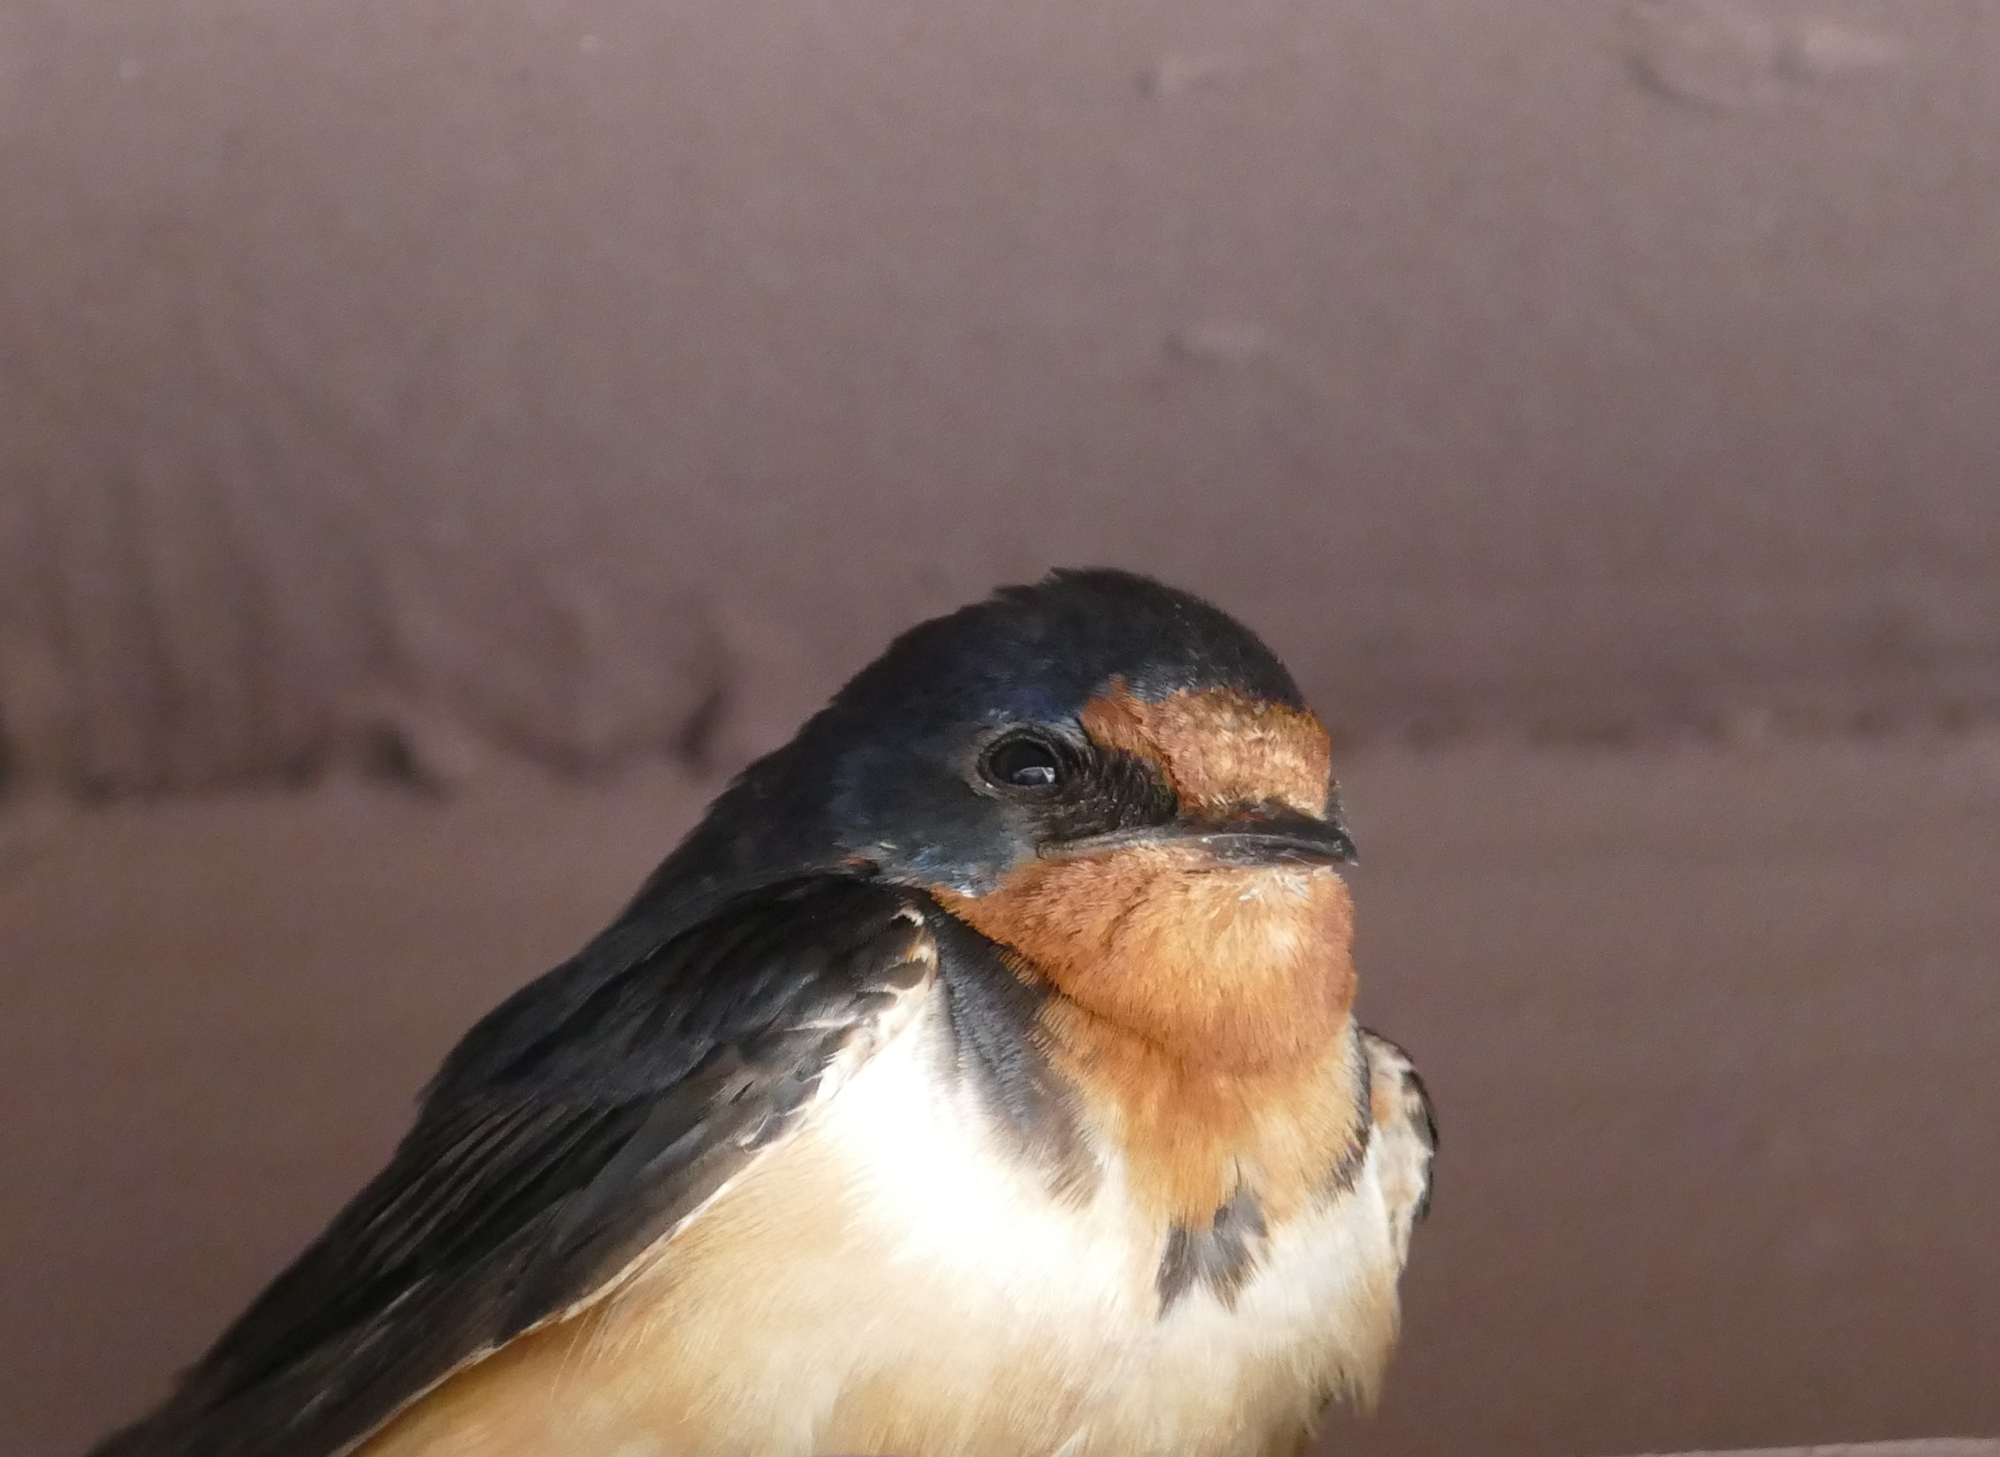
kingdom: Animalia
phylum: Chordata
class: Aves
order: Passeriformes
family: Hirundinidae
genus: Hirundo
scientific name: Hirundo rustica
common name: Barn swallow
